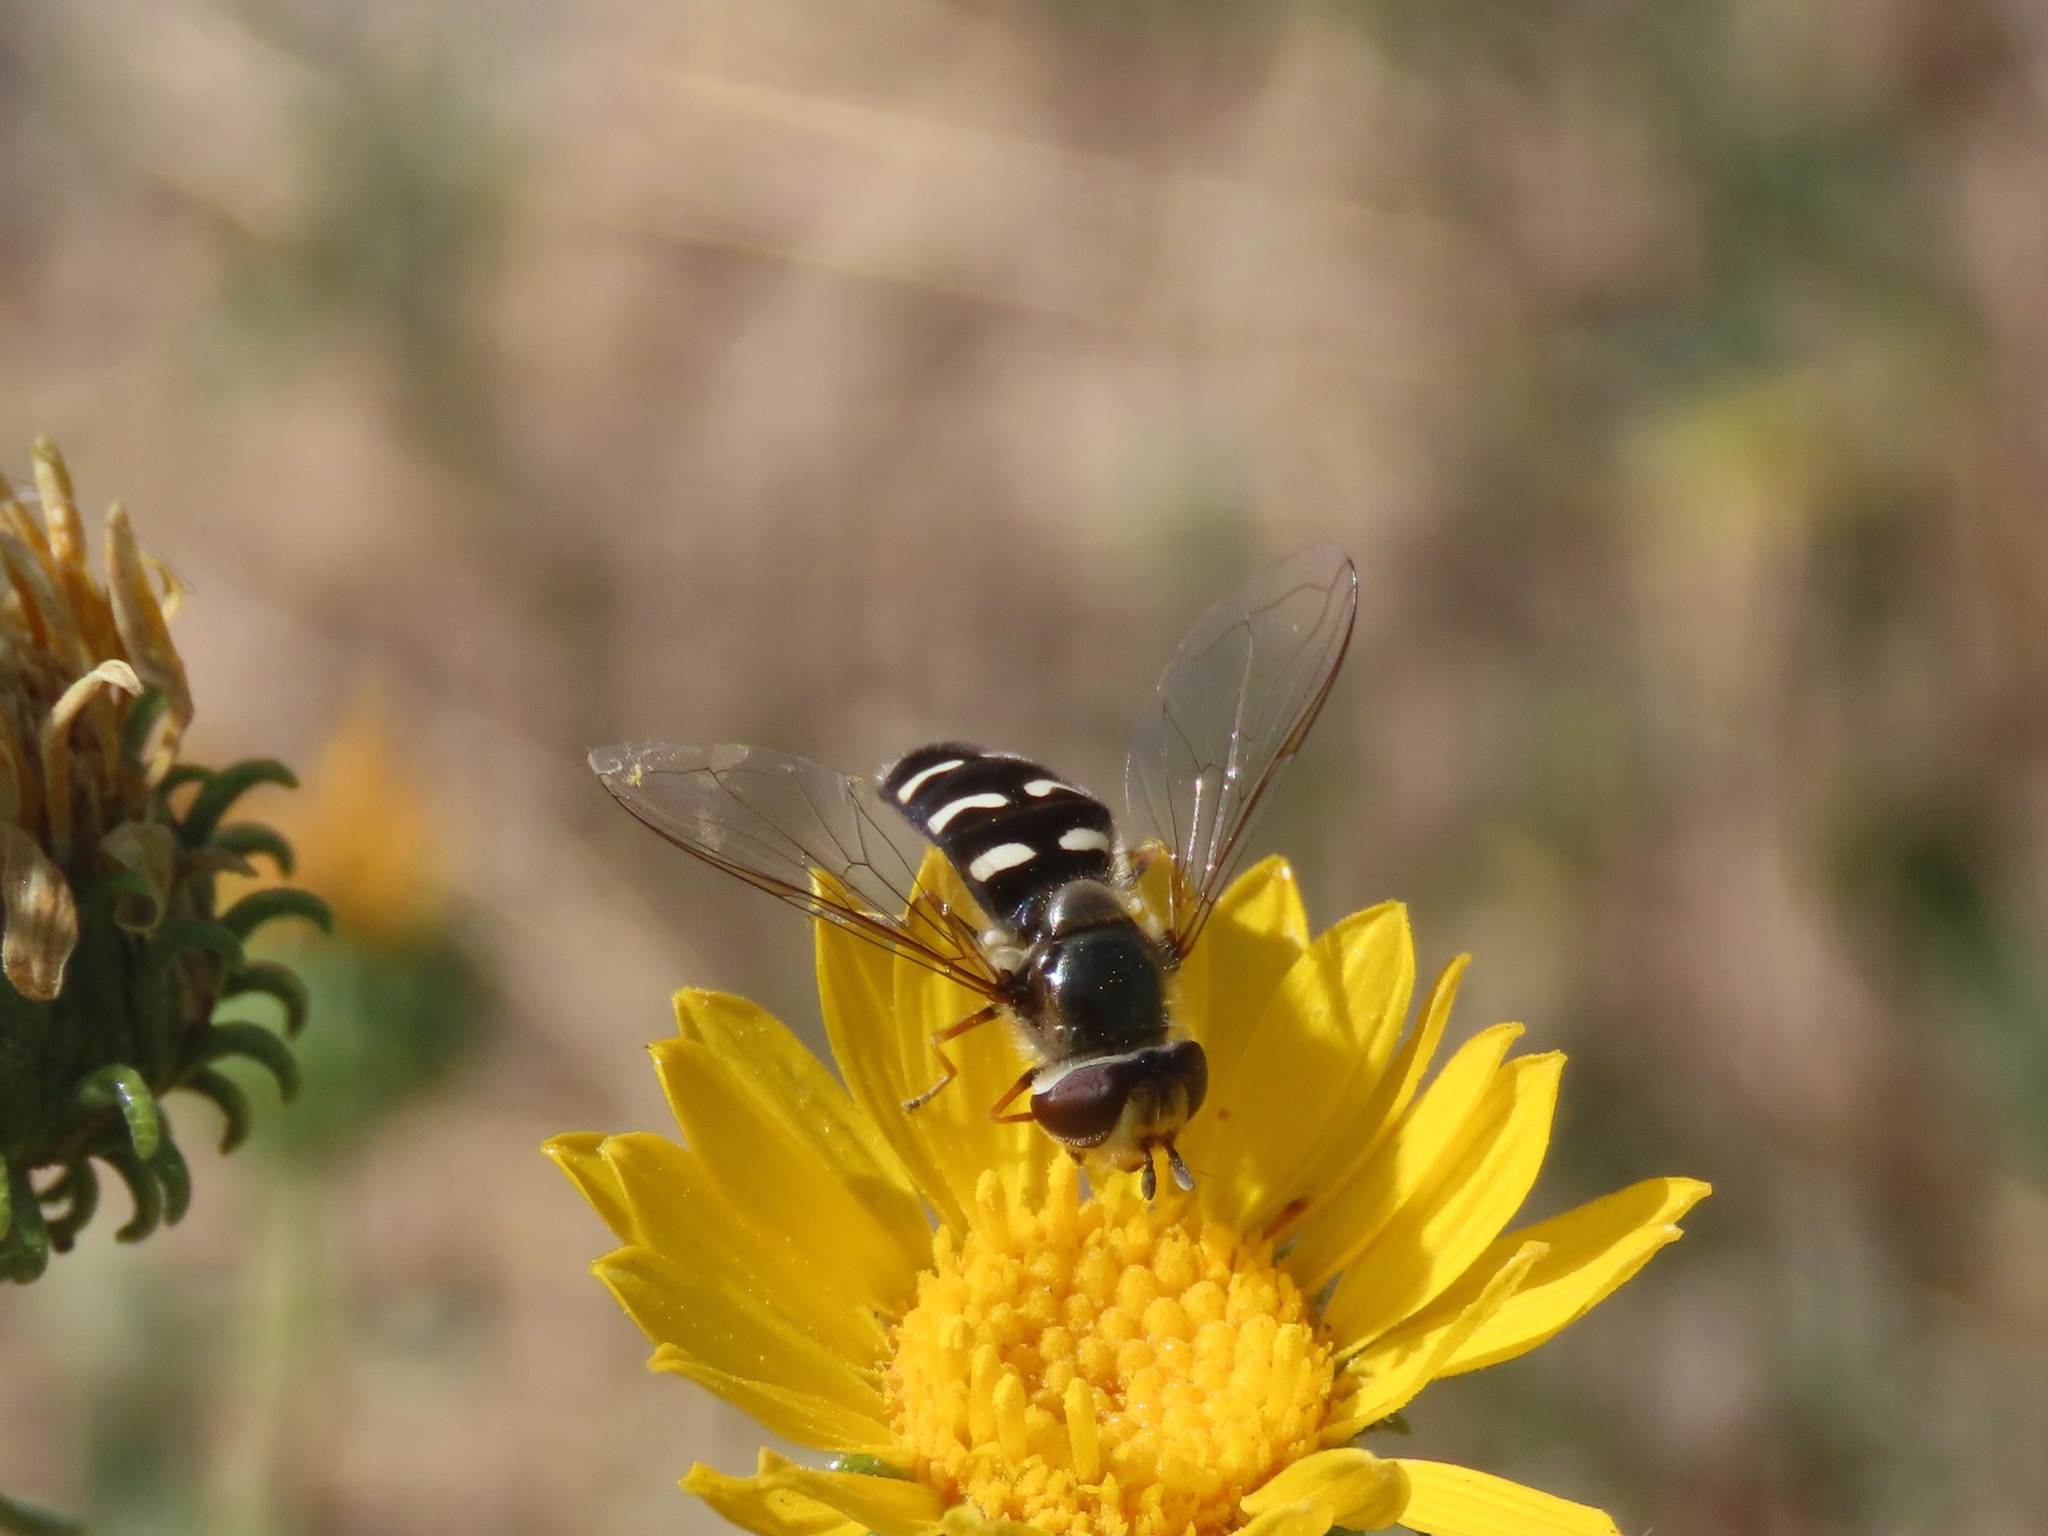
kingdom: Animalia
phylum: Arthropoda
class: Insecta
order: Diptera
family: Syrphidae
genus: Scaeva
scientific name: Scaeva affinis
